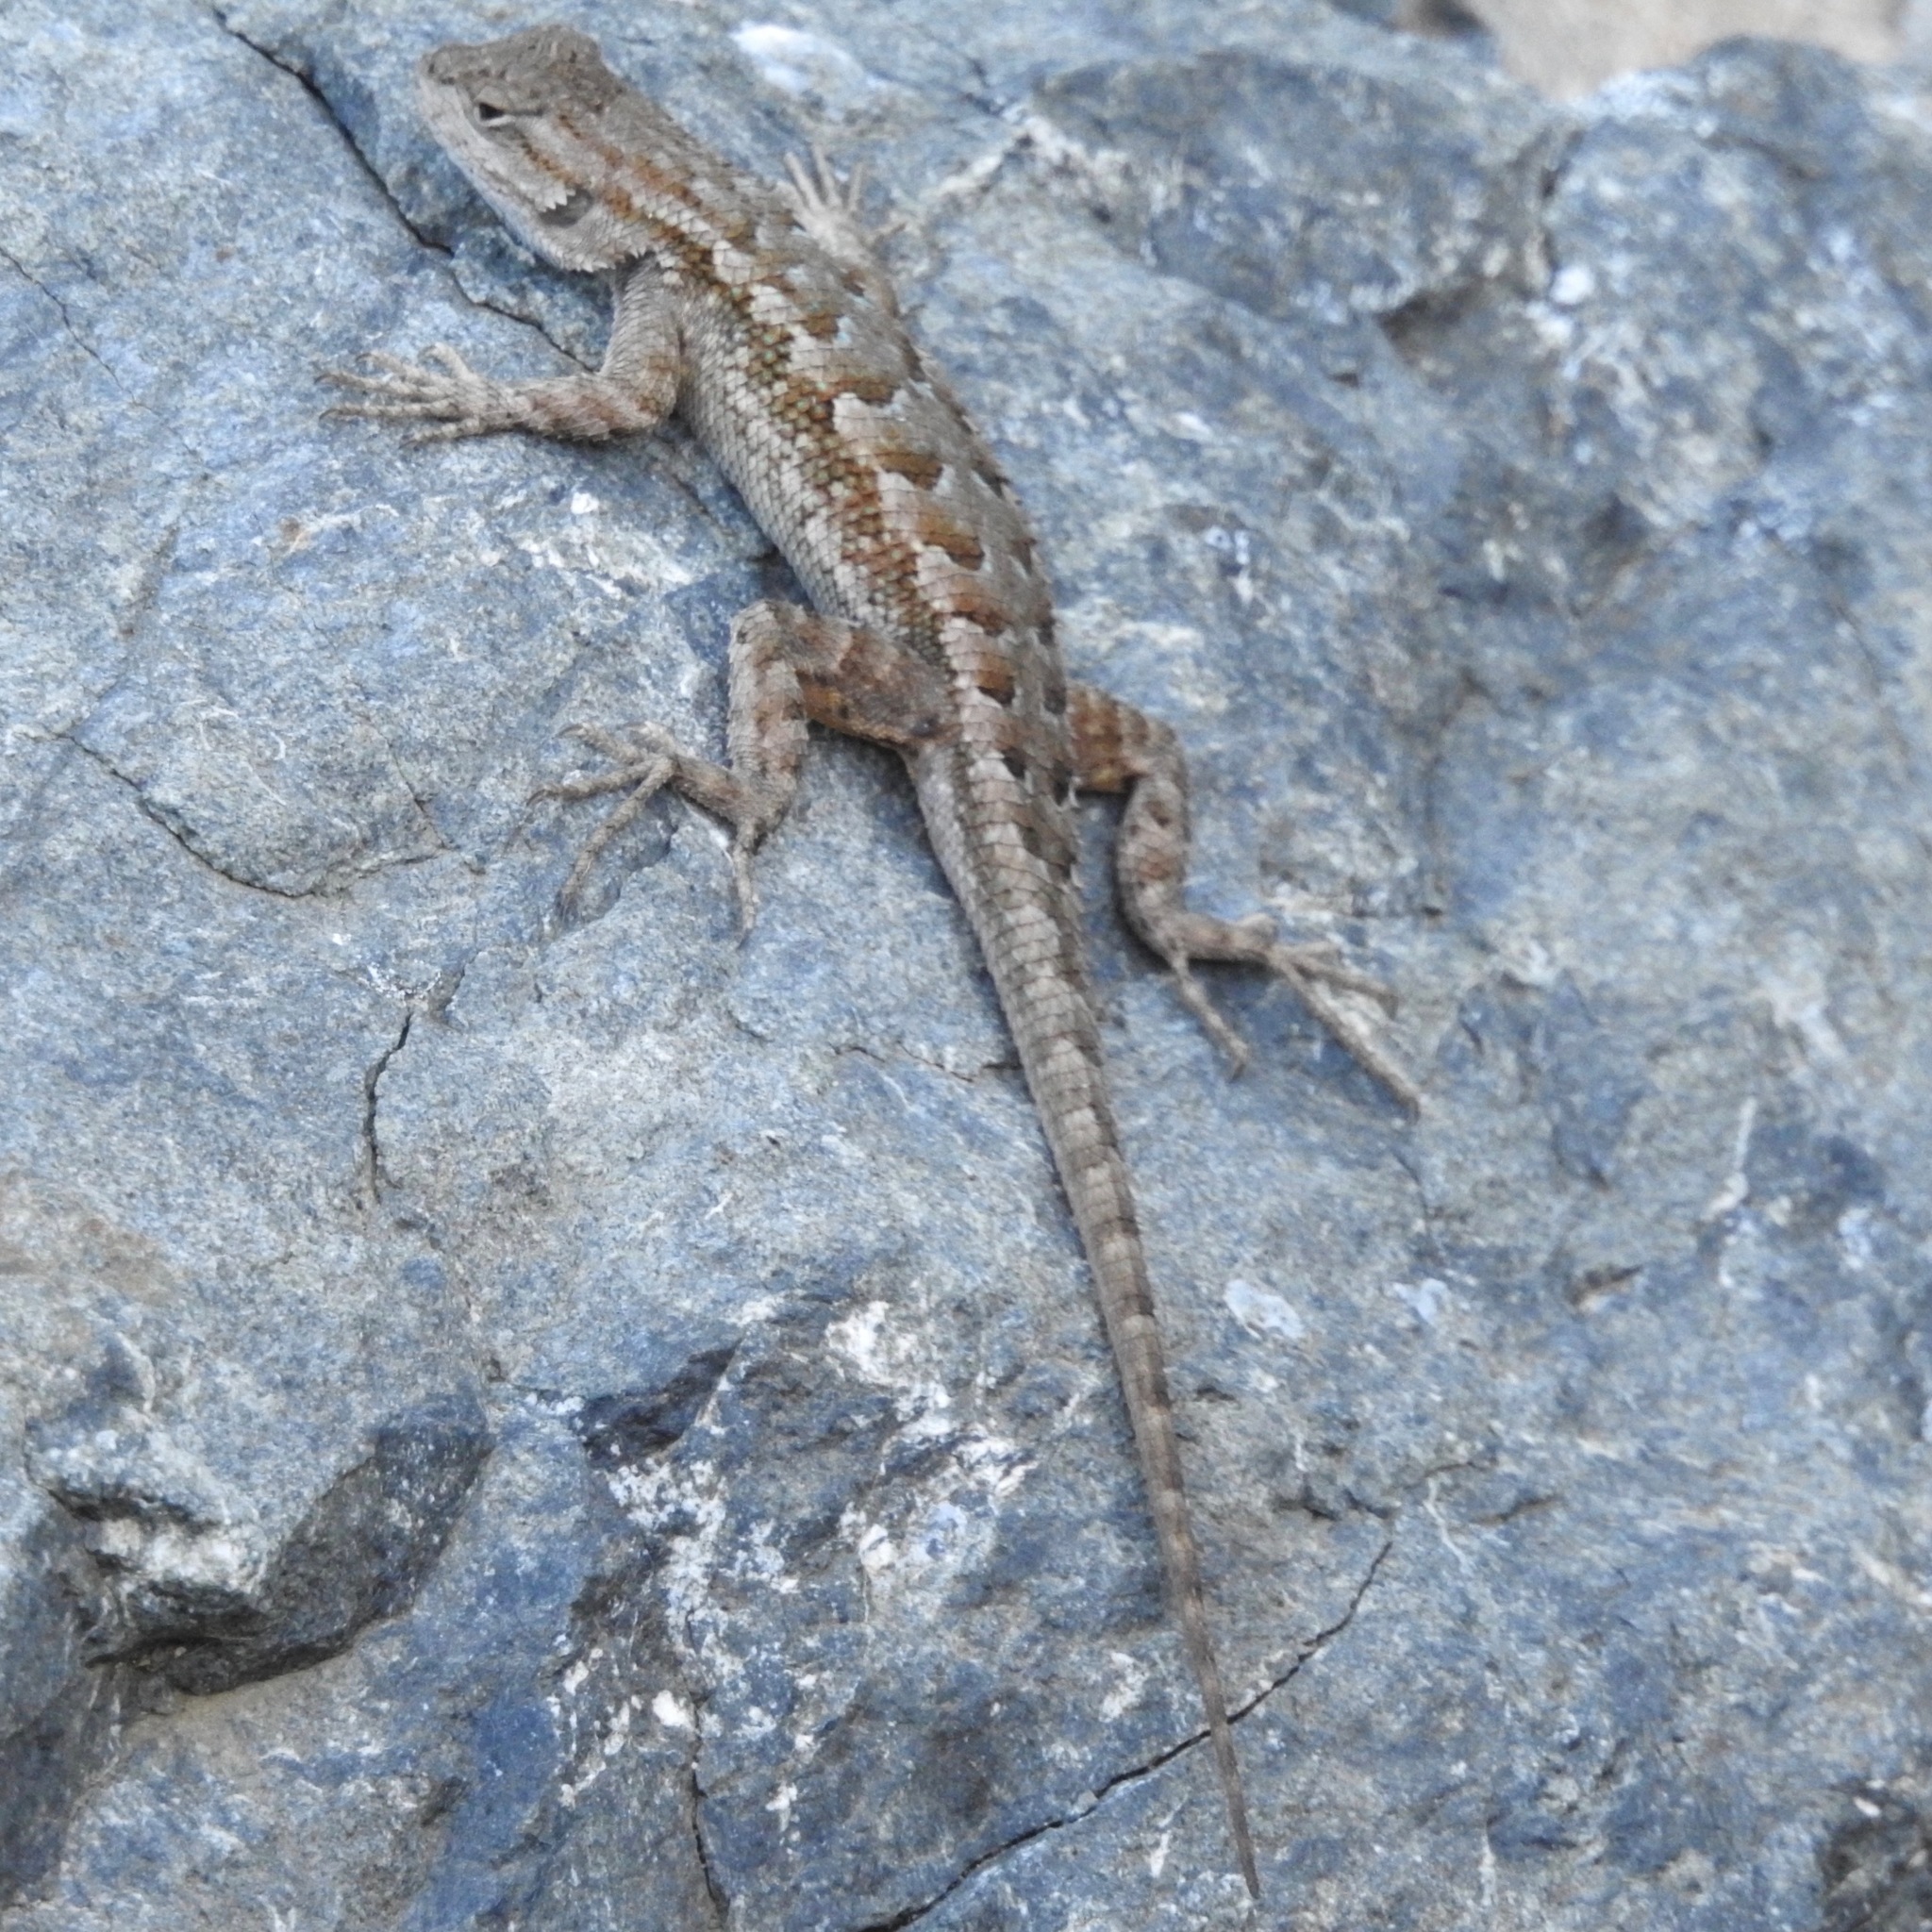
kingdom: Animalia
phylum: Chordata
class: Squamata
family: Phrynosomatidae
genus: Sceloporus
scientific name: Sceloporus occidentalis
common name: Western fence lizard
